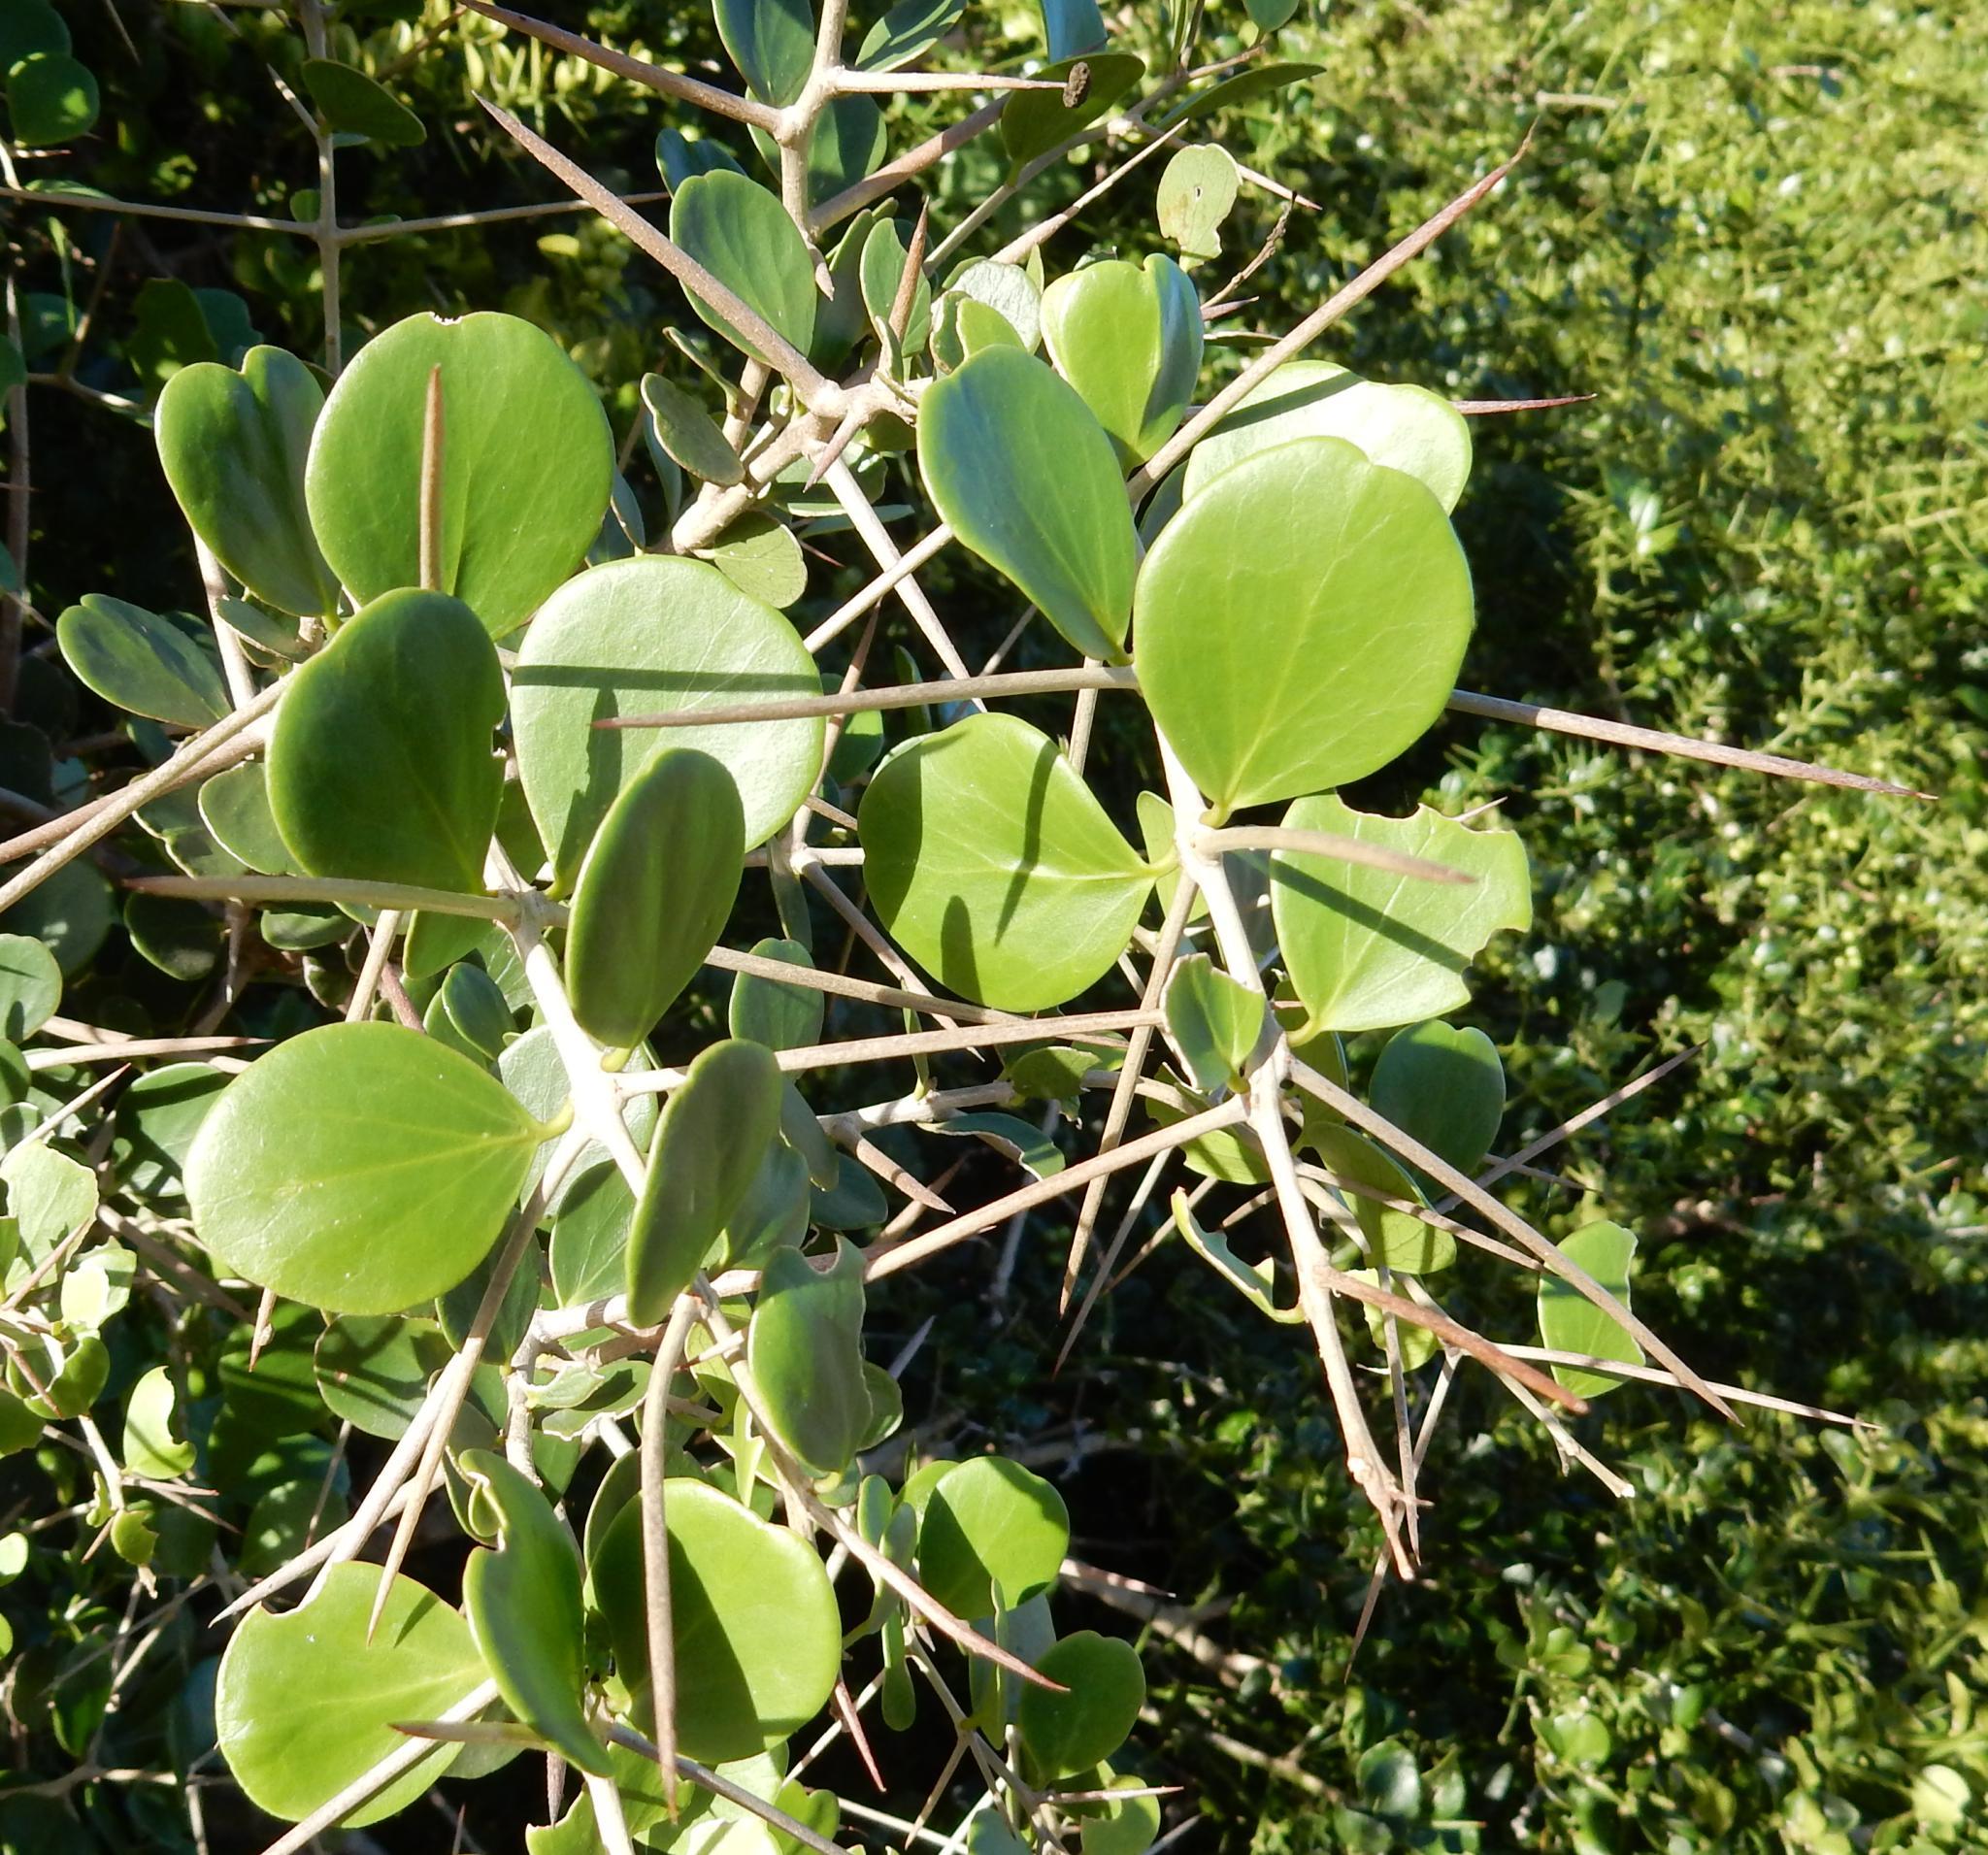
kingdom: Plantae
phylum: Tracheophyta
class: Magnoliopsida
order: Malpighiales
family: Salicaceae
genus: Dovyalis
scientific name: Dovyalis rotundifolia
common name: Dune sourberry
